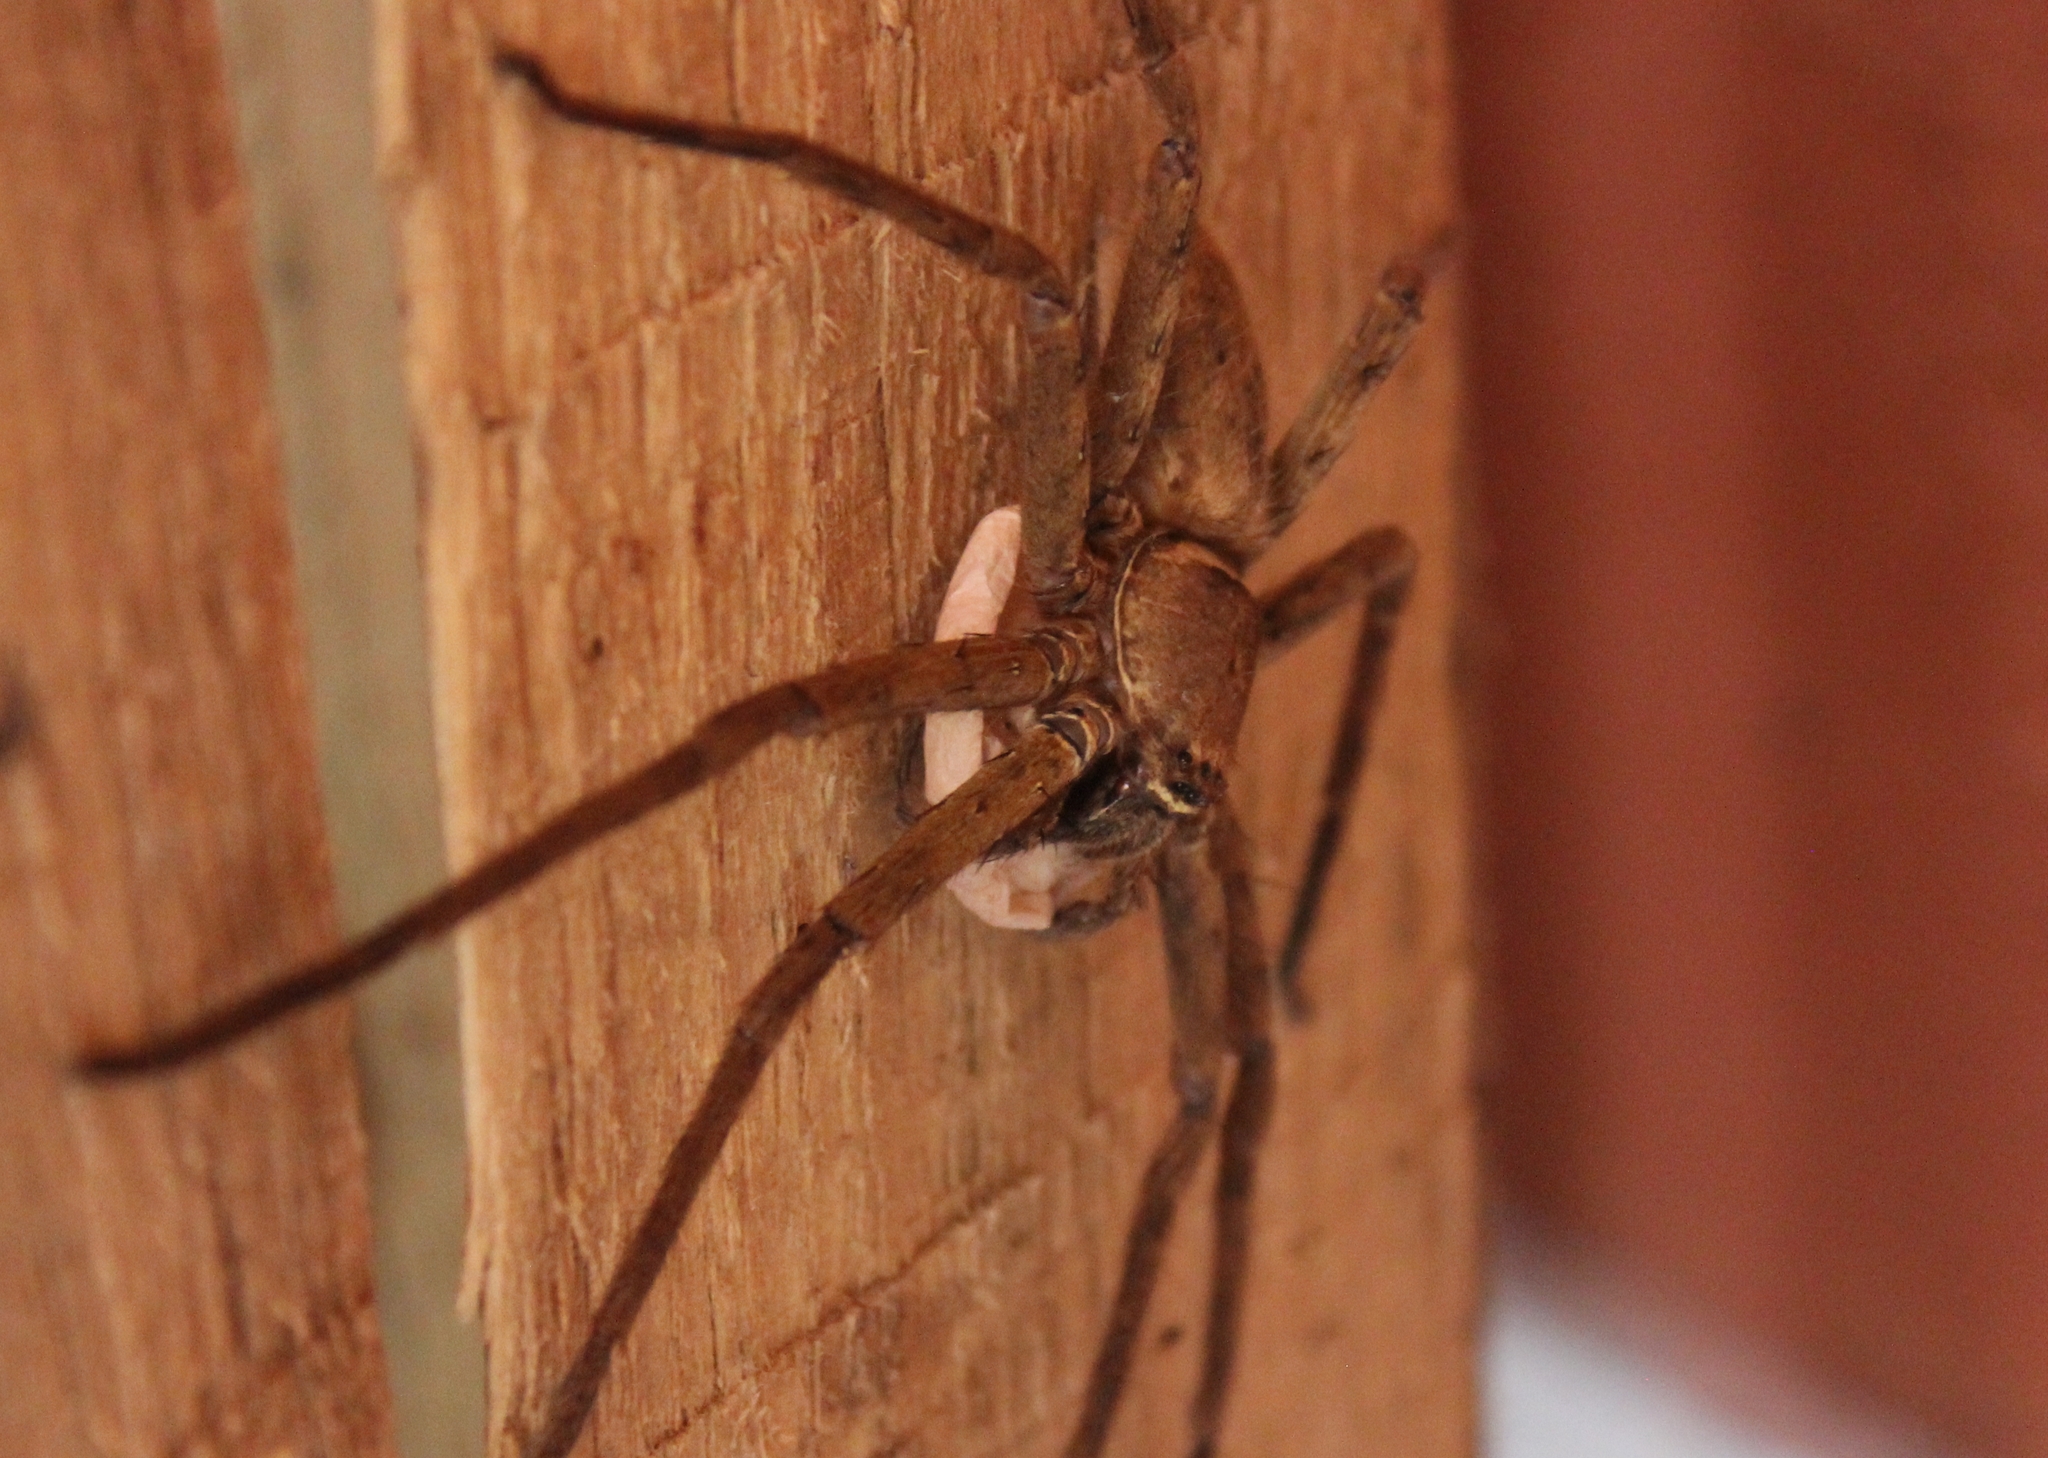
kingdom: Animalia
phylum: Arthropoda
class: Arachnida
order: Araneae
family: Sparassidae
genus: Heteropoda
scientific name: Heteropoda venatoria
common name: Huntsman spider
